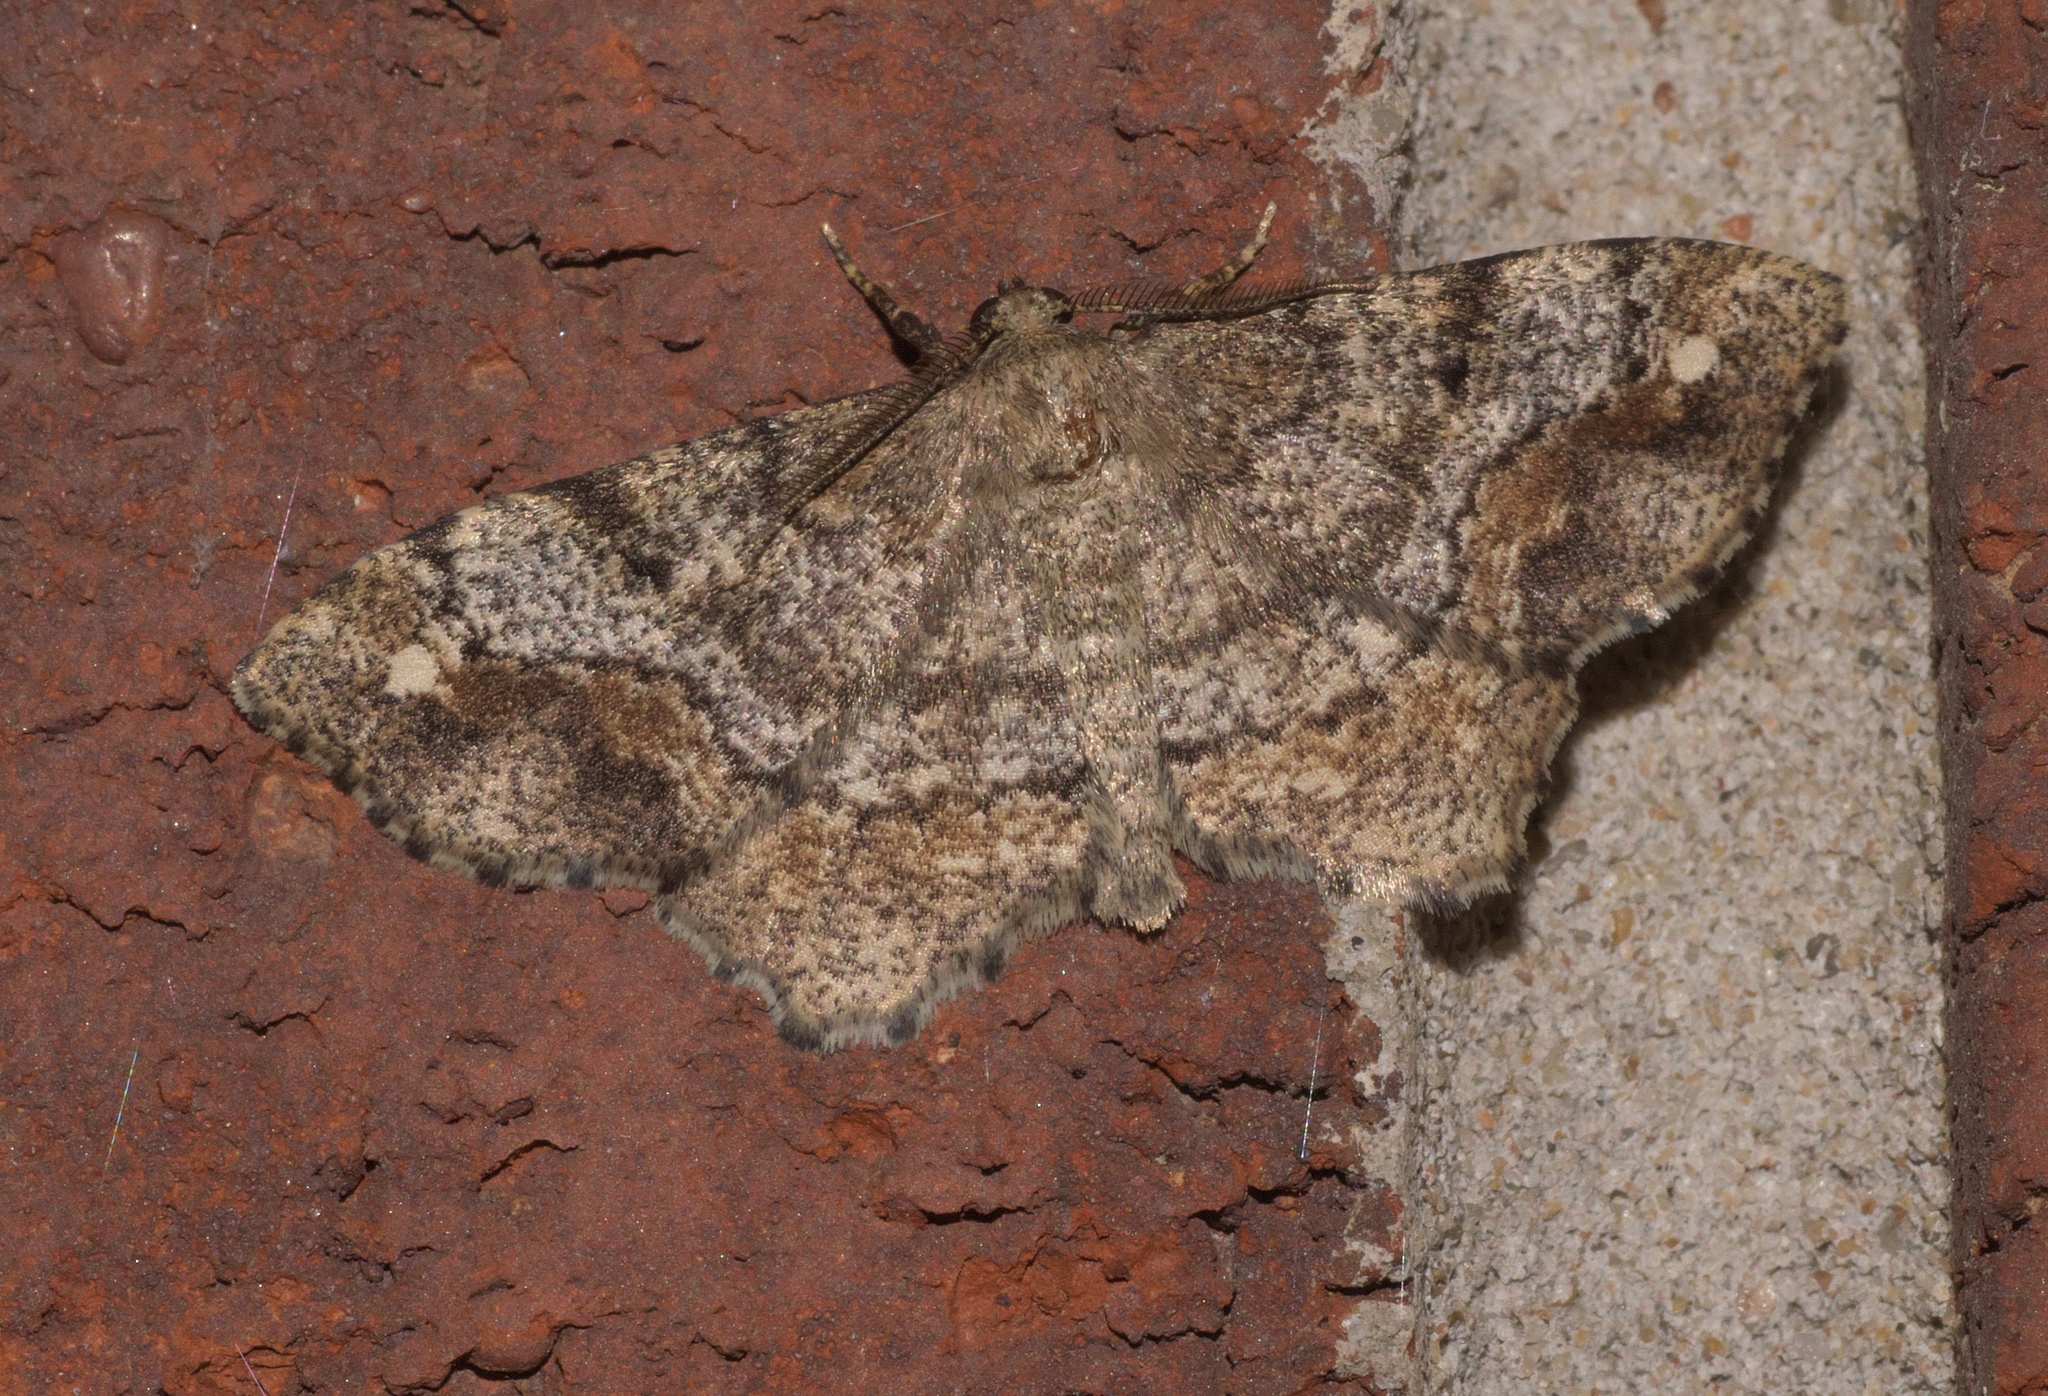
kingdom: Animalia
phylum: Arthropoda
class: Insecta
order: Lepidoptera
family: Geometridae
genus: Hypagyrtis
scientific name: Hypagyrtis unipunctata
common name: One-spotted variant
